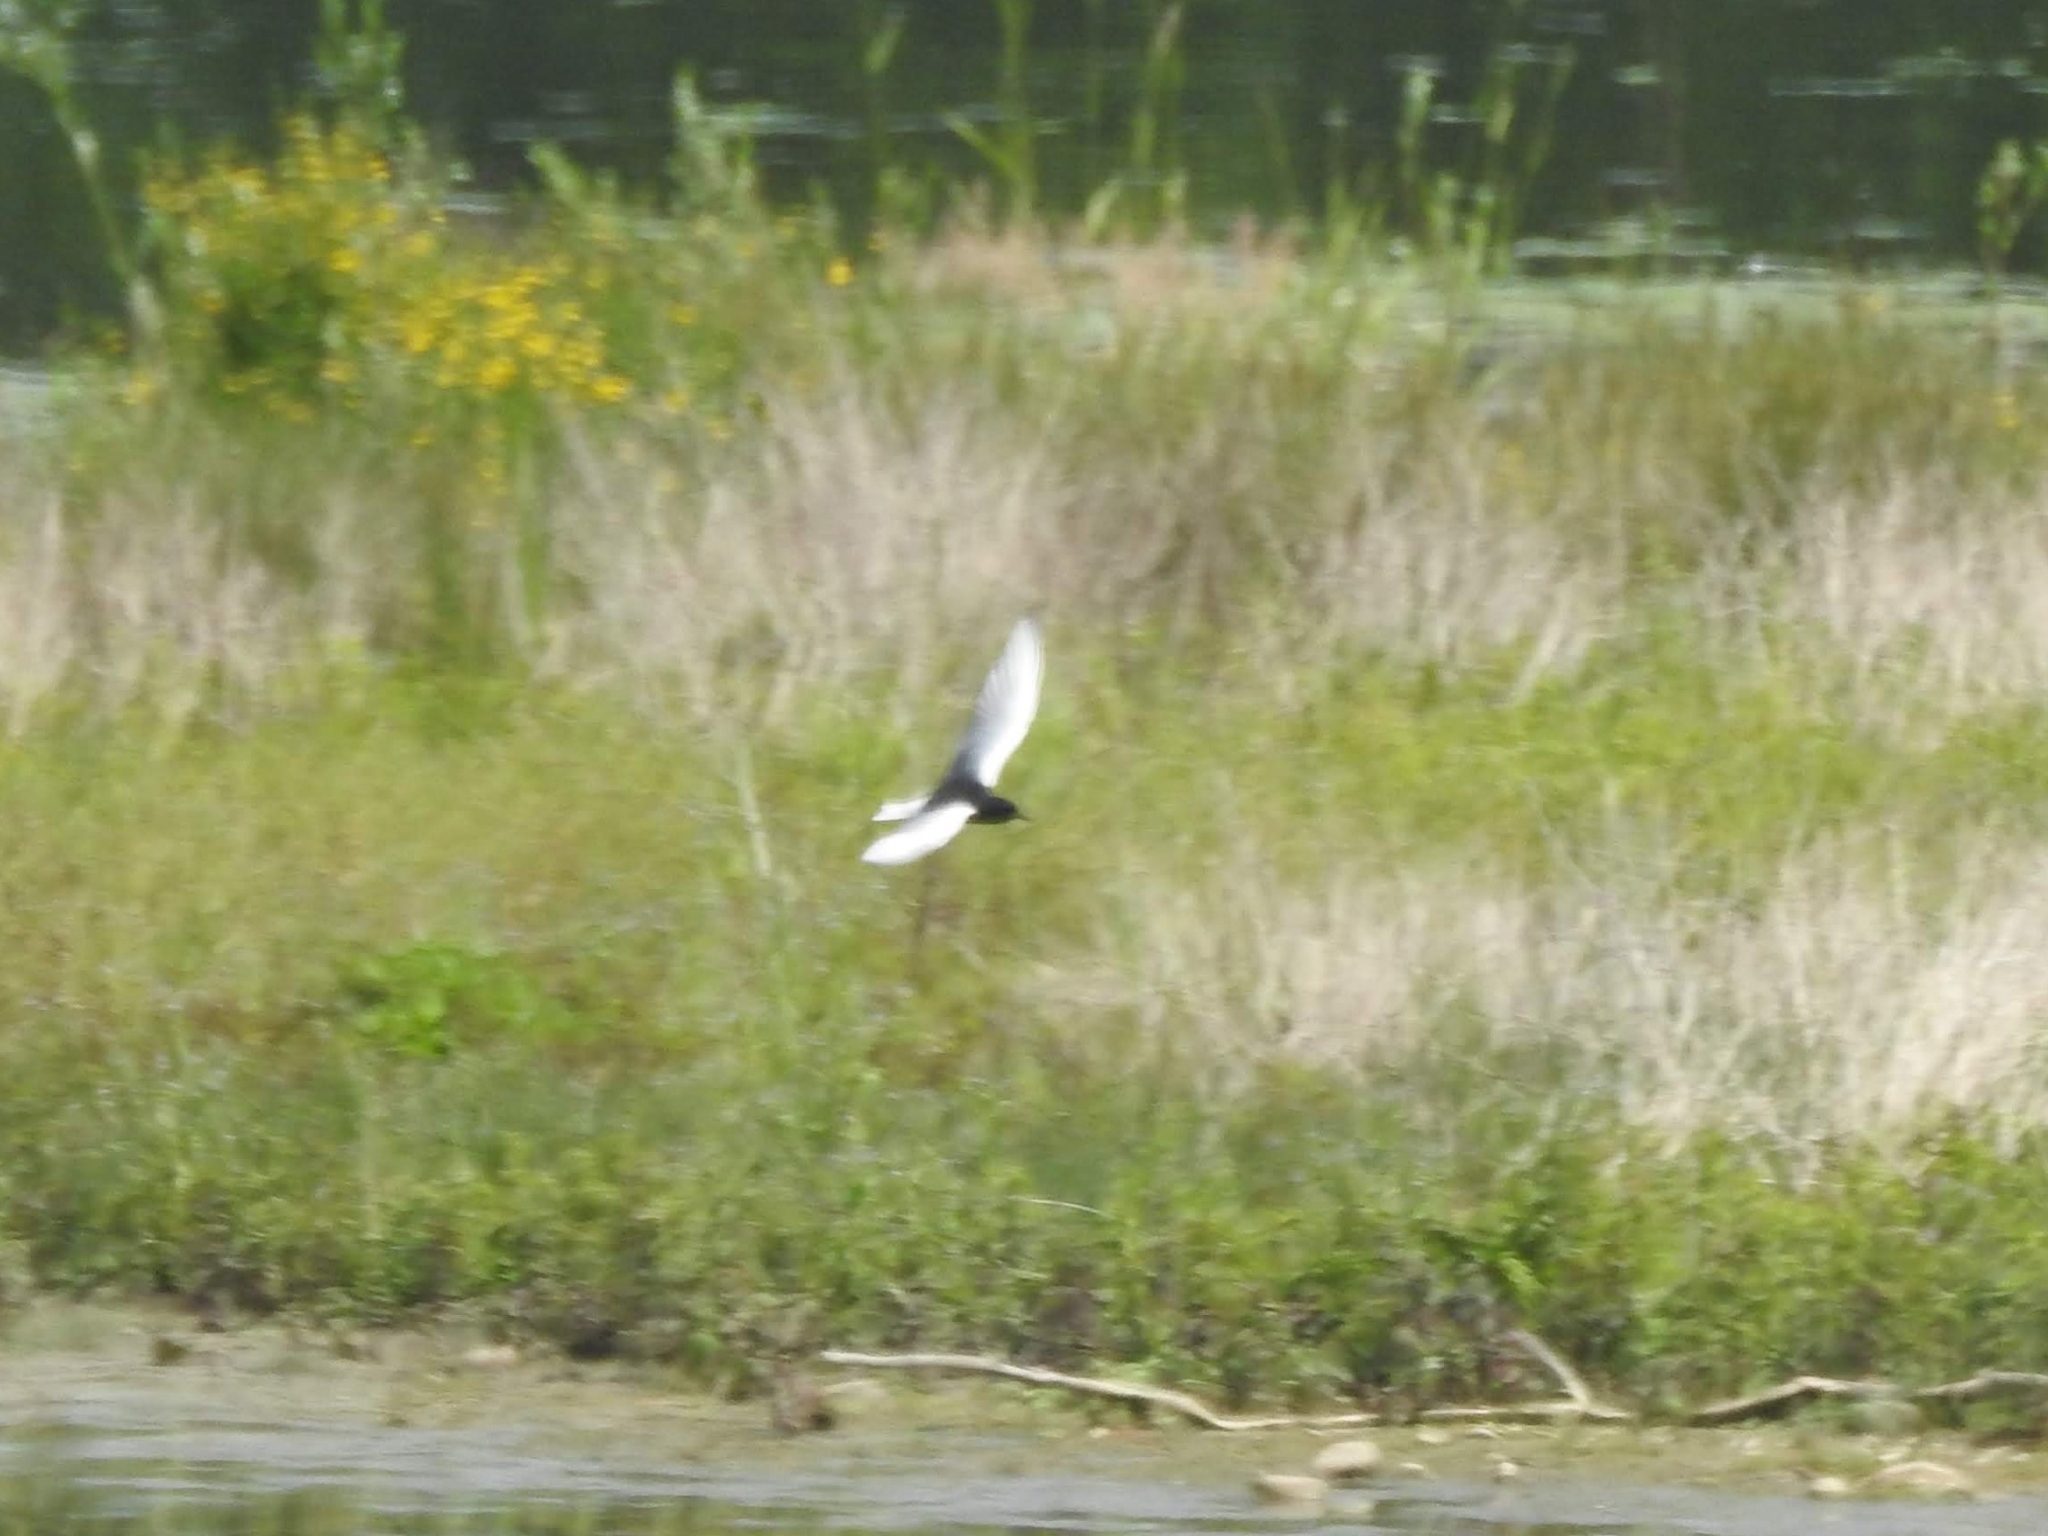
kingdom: Animalia
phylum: Chordata
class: Aves
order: Charadriiformes
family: Laridae
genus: Chlidonias
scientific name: Chlidonias leucopterus
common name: White-winged tern
